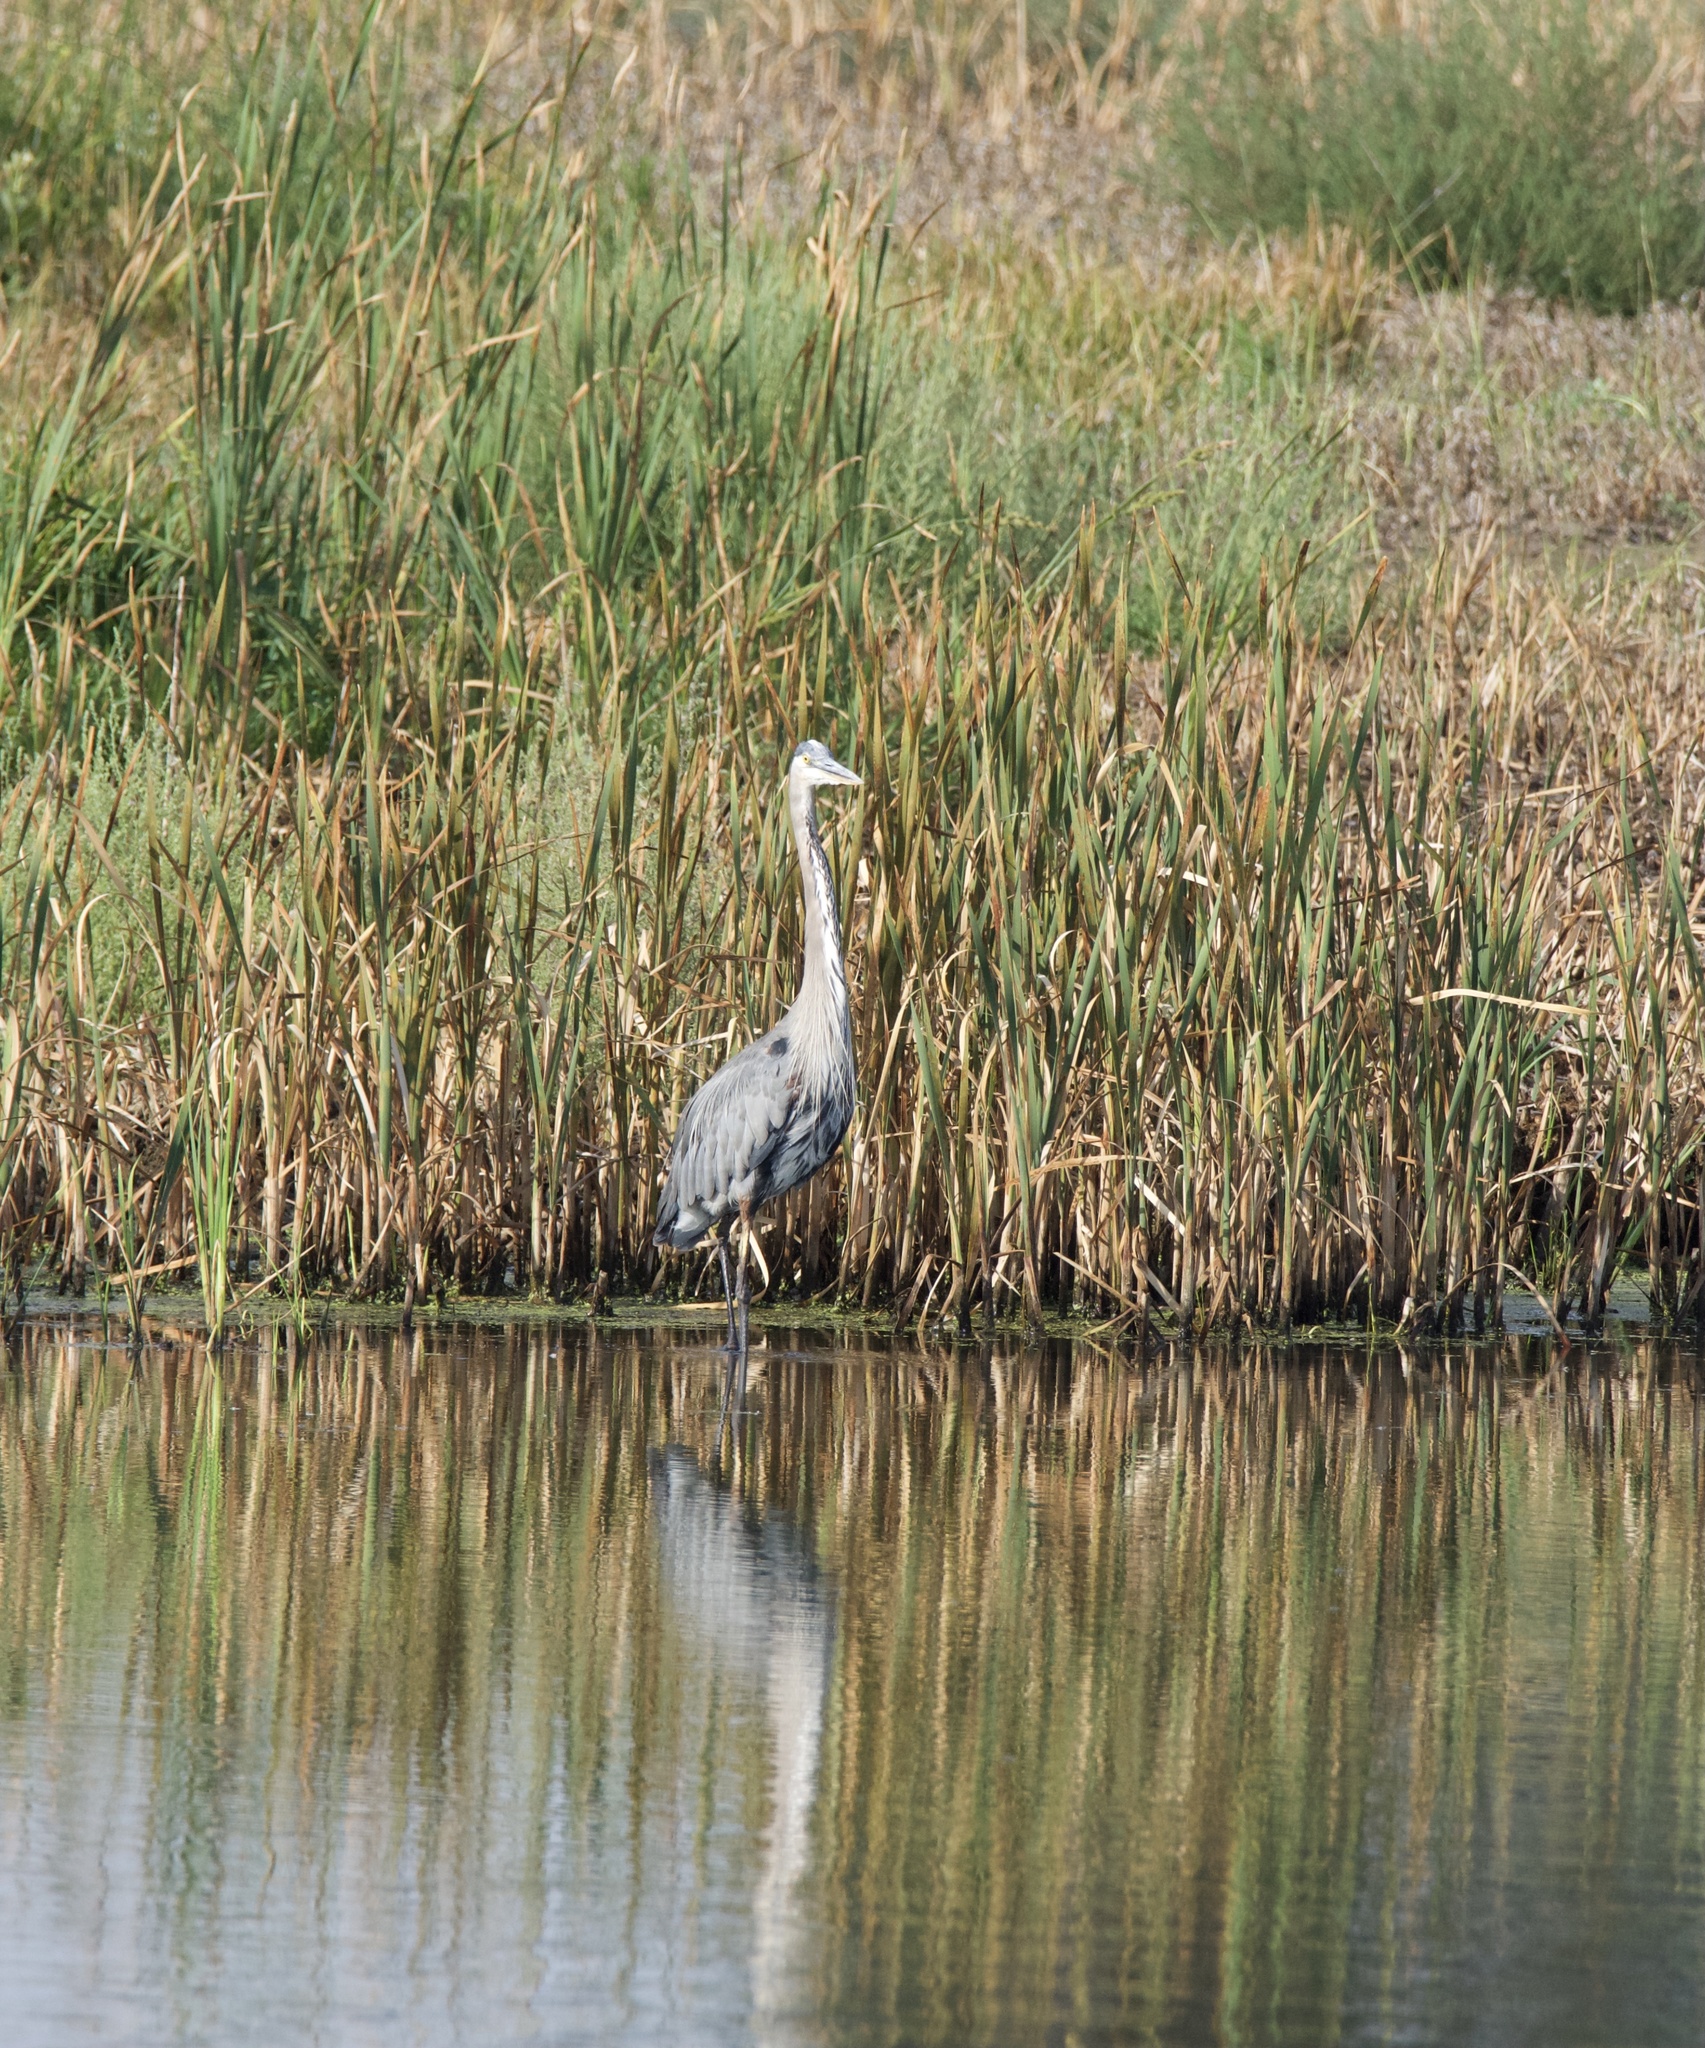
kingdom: Animalia
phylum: Chordata
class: Aves
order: Pelecaniformes
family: Ardeidae
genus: Ardea
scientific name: Ardea herodias
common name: Great blue heron
